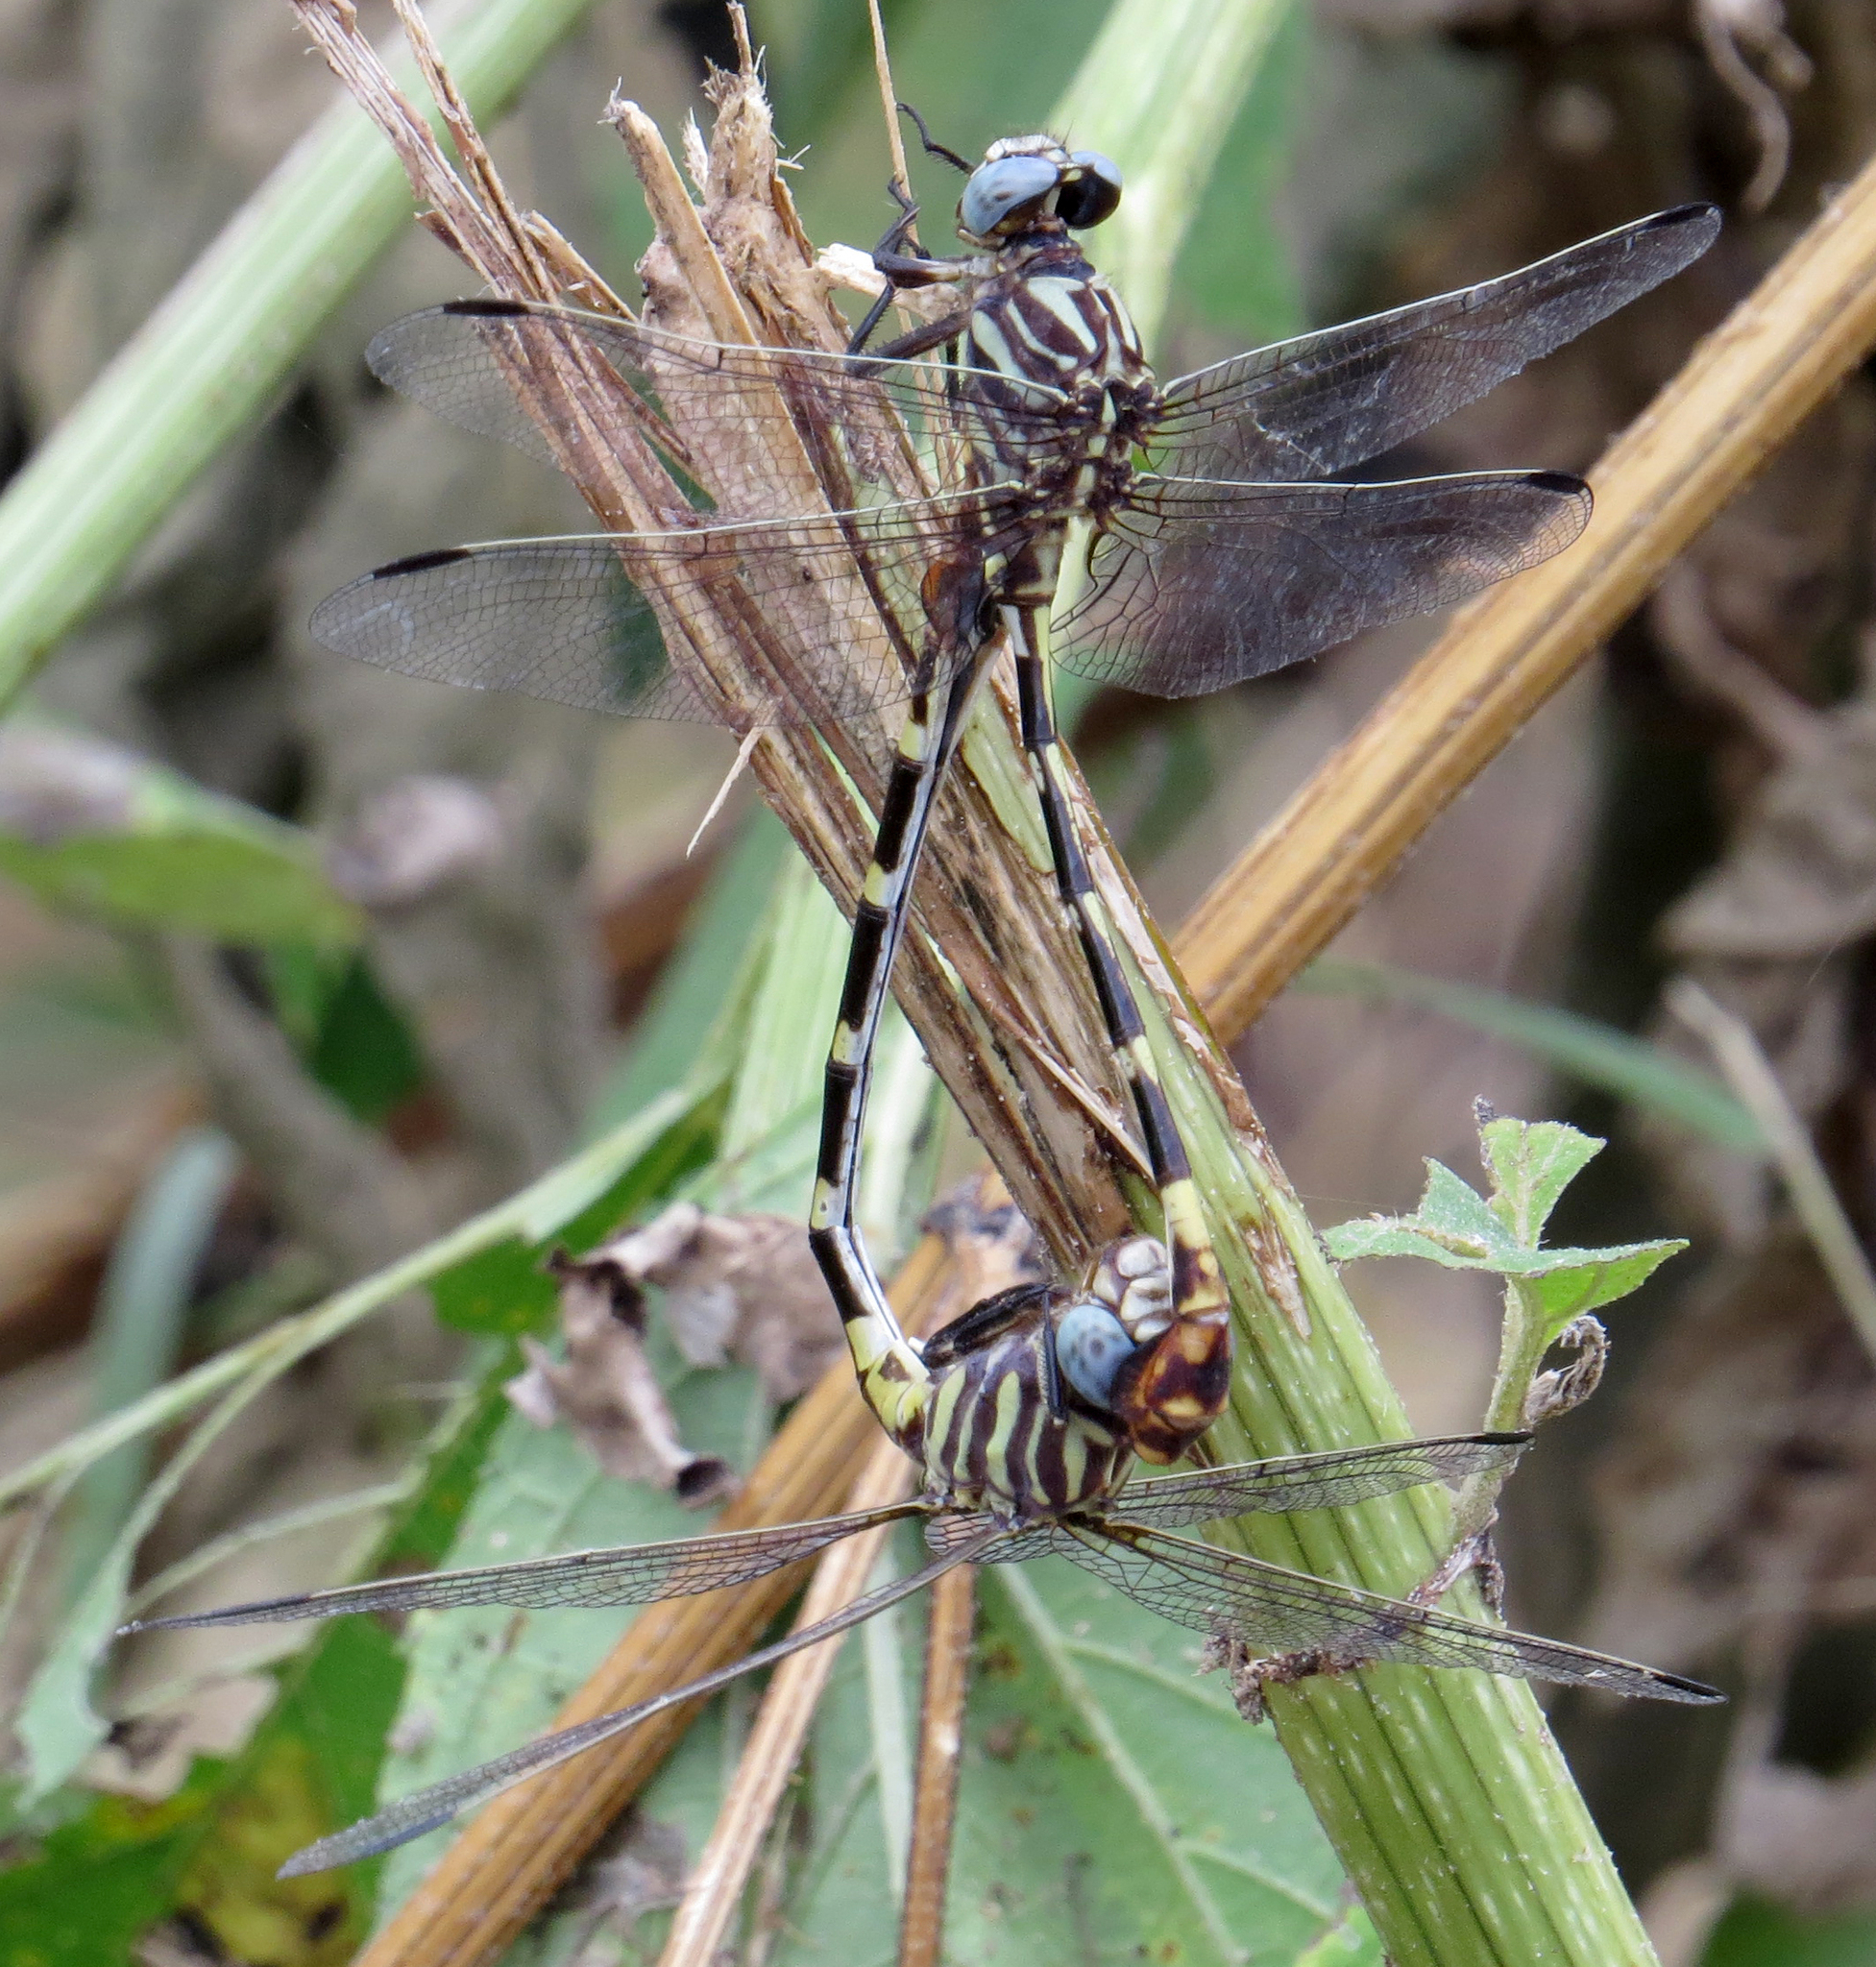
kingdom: Animalia
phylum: Arthropoda
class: Insecta
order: Odonata
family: Gomphidae
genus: Phyllogomphoides
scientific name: Phyllogomphoides albrighti
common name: Five-striped leaftail
